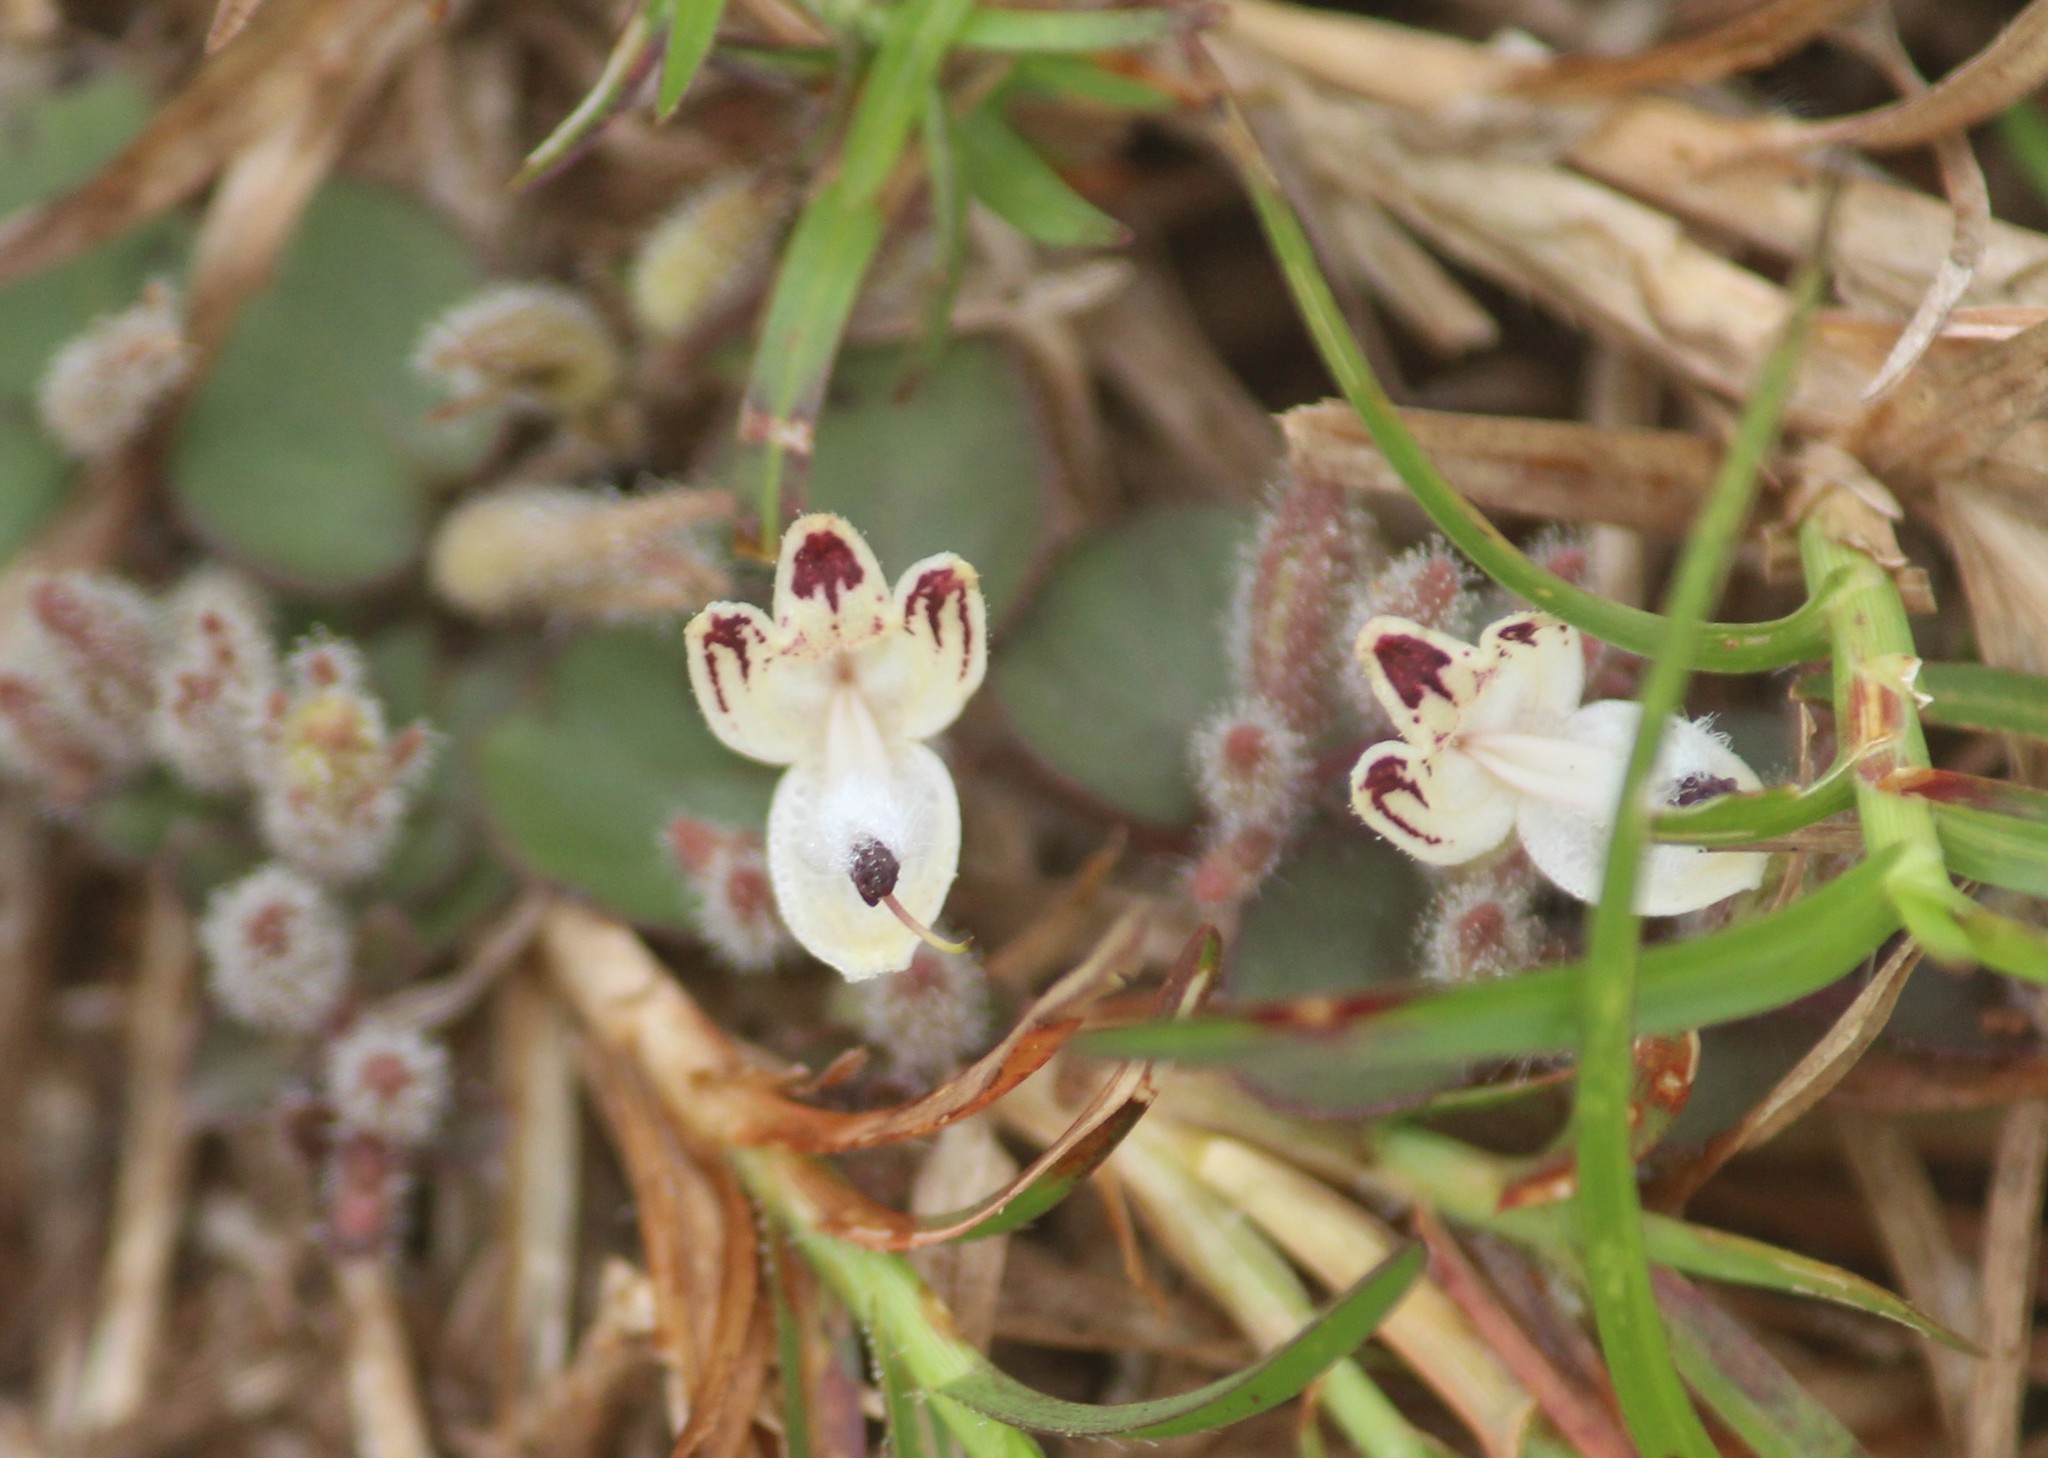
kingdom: Plantae
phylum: Tracheophyta
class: Magnoliopsida
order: Lamiales
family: Acanthaceae
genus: Andrographis
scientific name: Andrographis serpyllifolia
